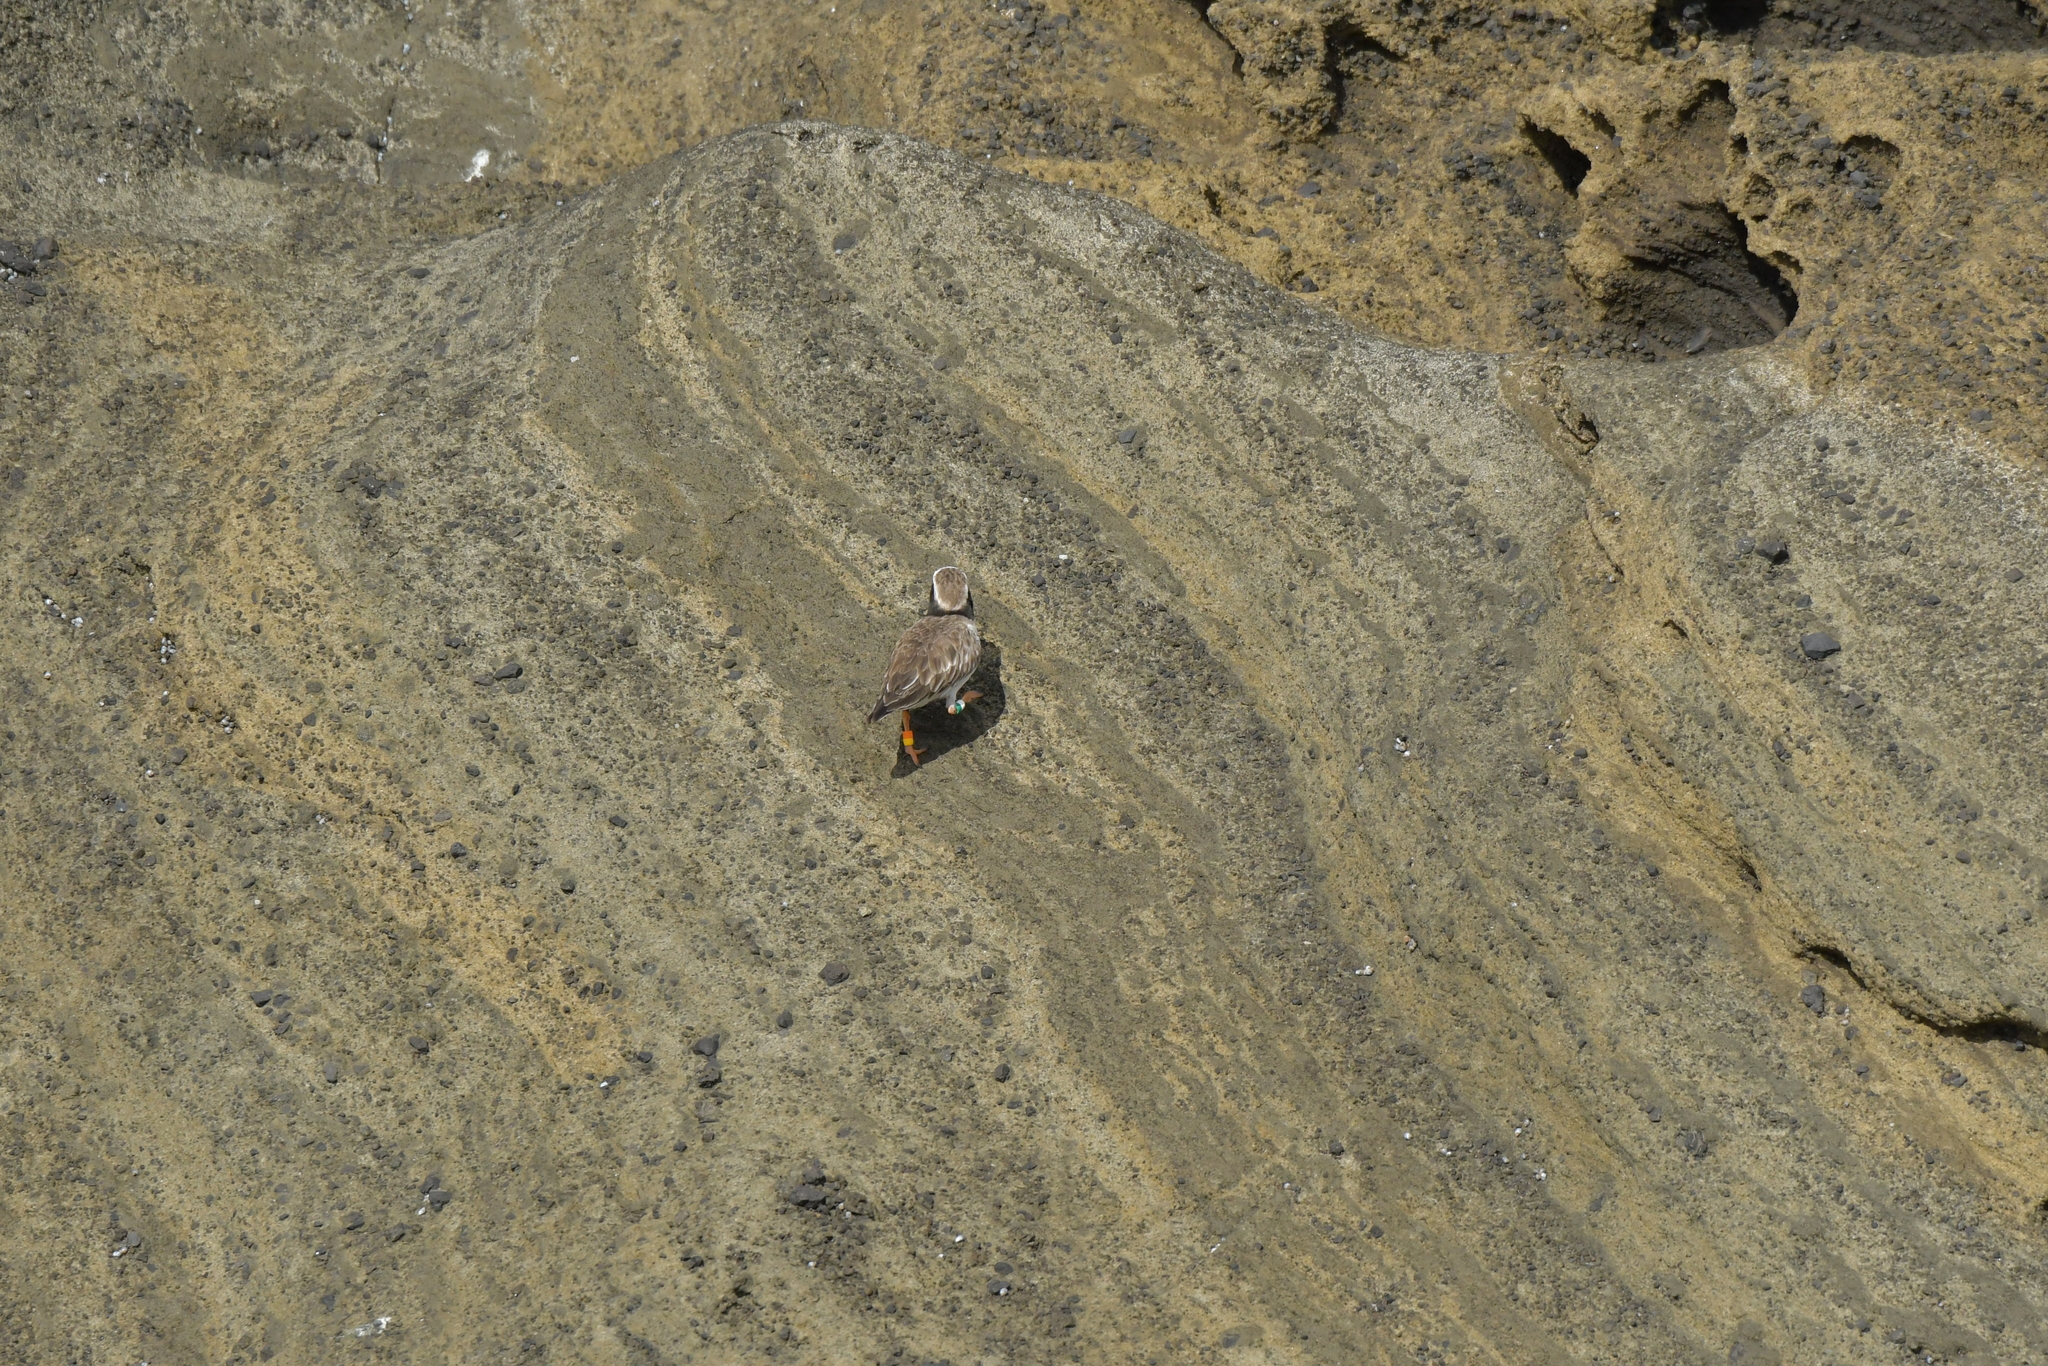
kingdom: Animalia
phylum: Chordata
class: Aves
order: Charadriiformes
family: Charadriidae
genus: Thinornis
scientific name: Thinornis novaeseelandiae
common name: Shore dotterel
